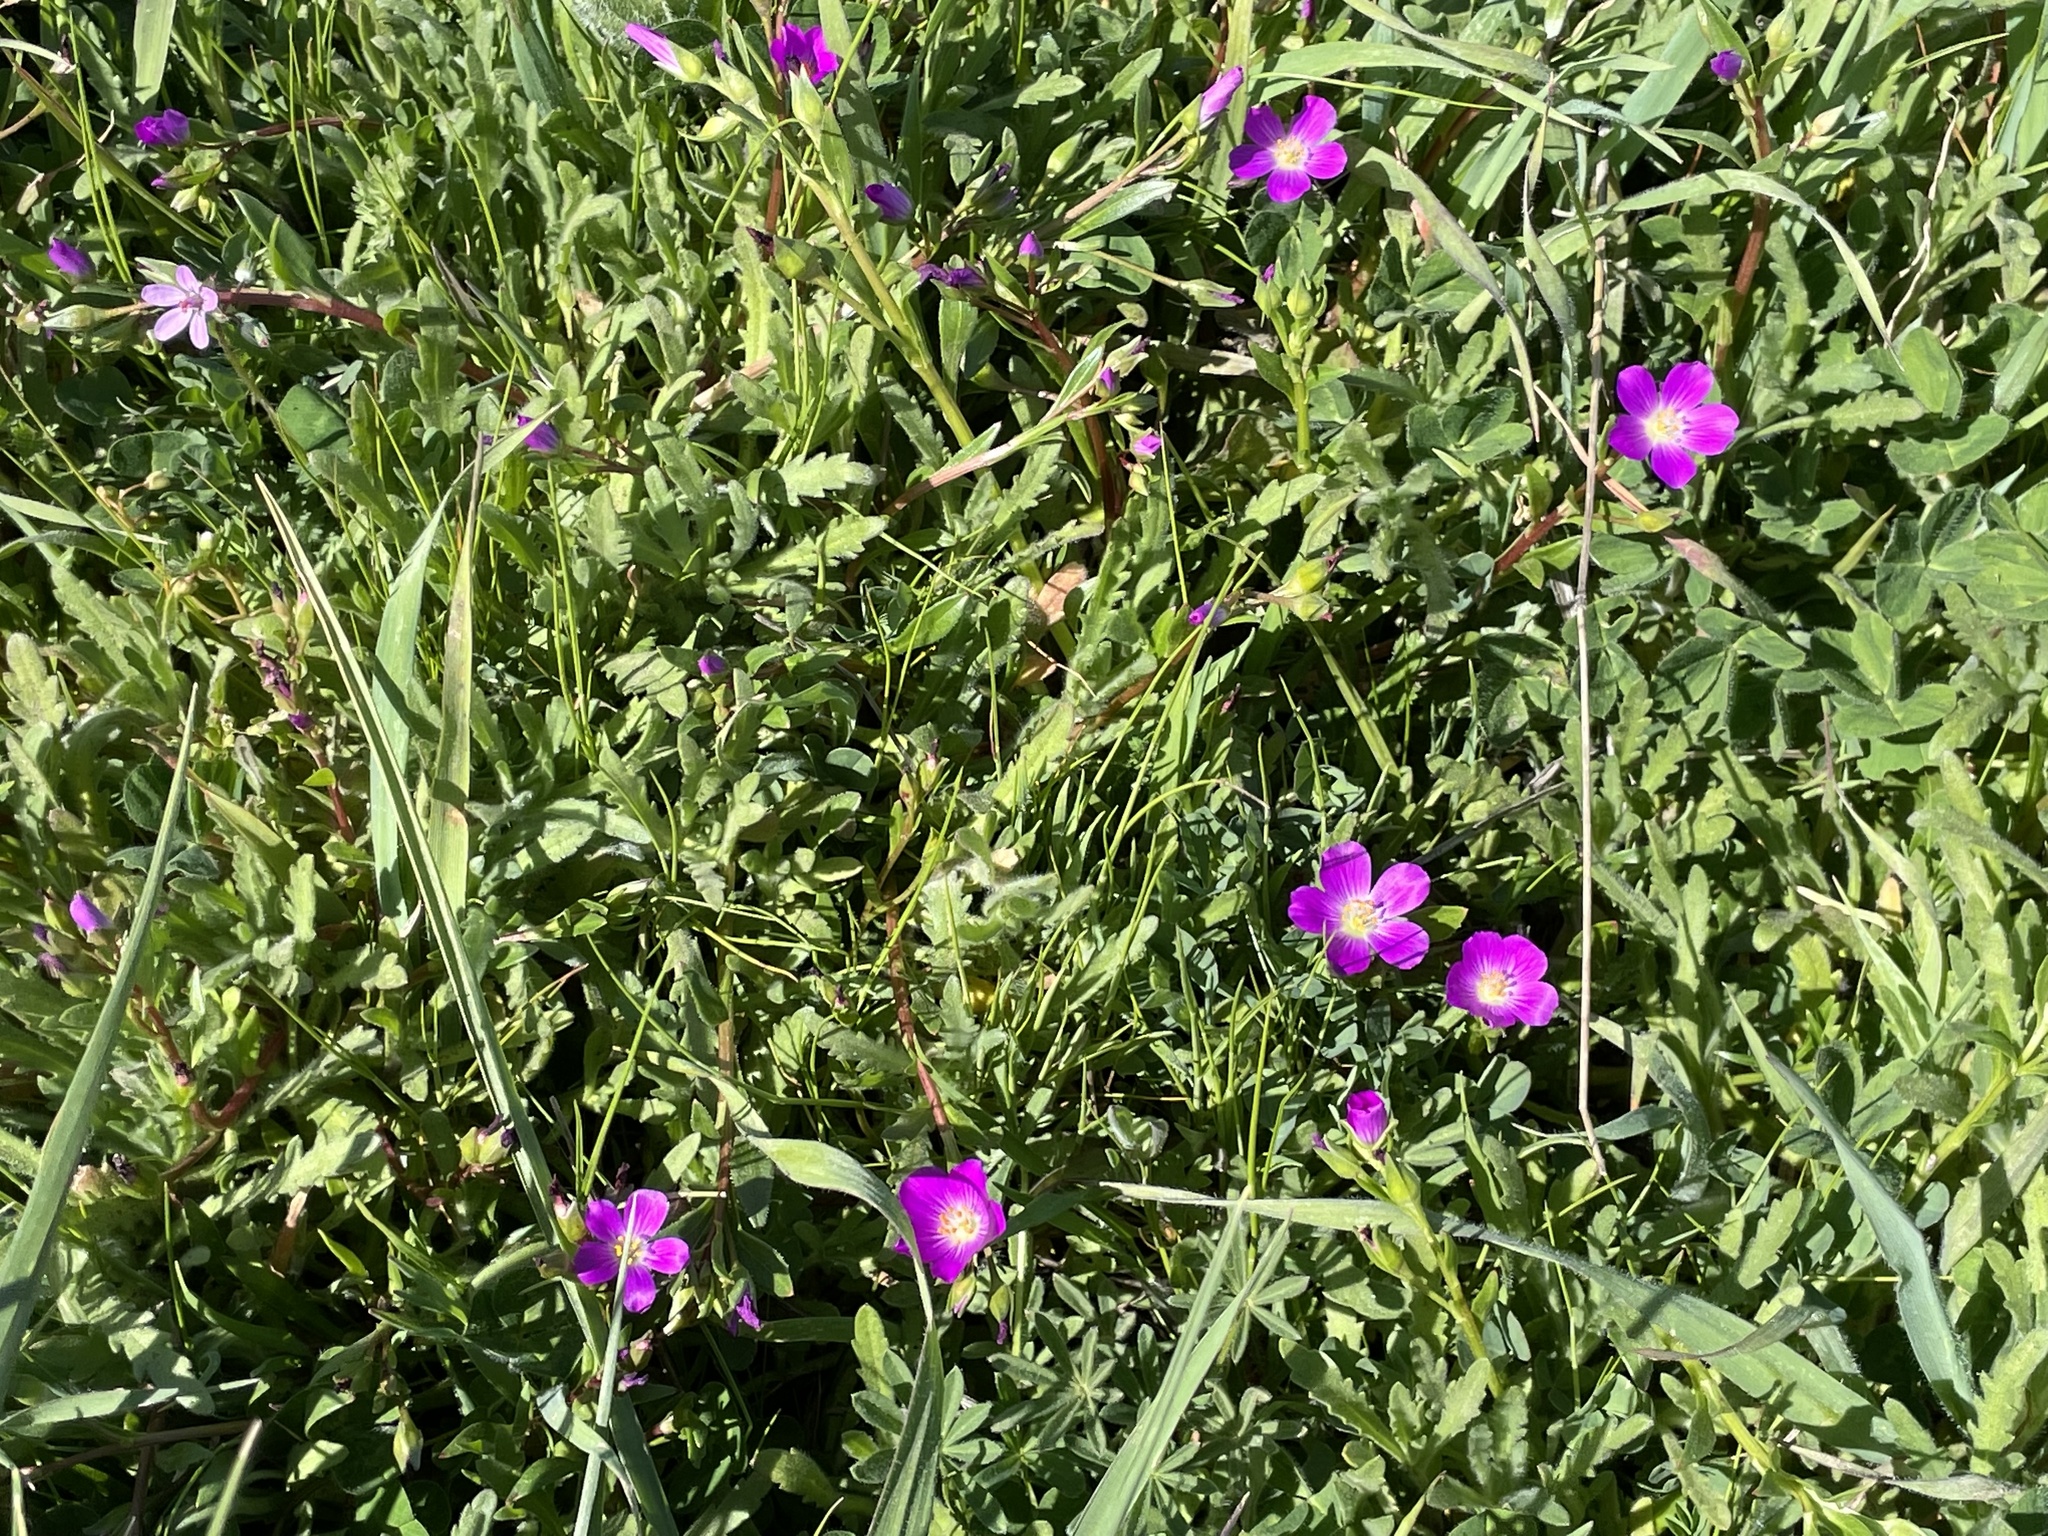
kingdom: Plantae
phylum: Tracheophyta
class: Magnoliopsida
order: Caryophyllales
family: Montiaceae
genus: Calandrinia
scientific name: Calandrinia menziesii
